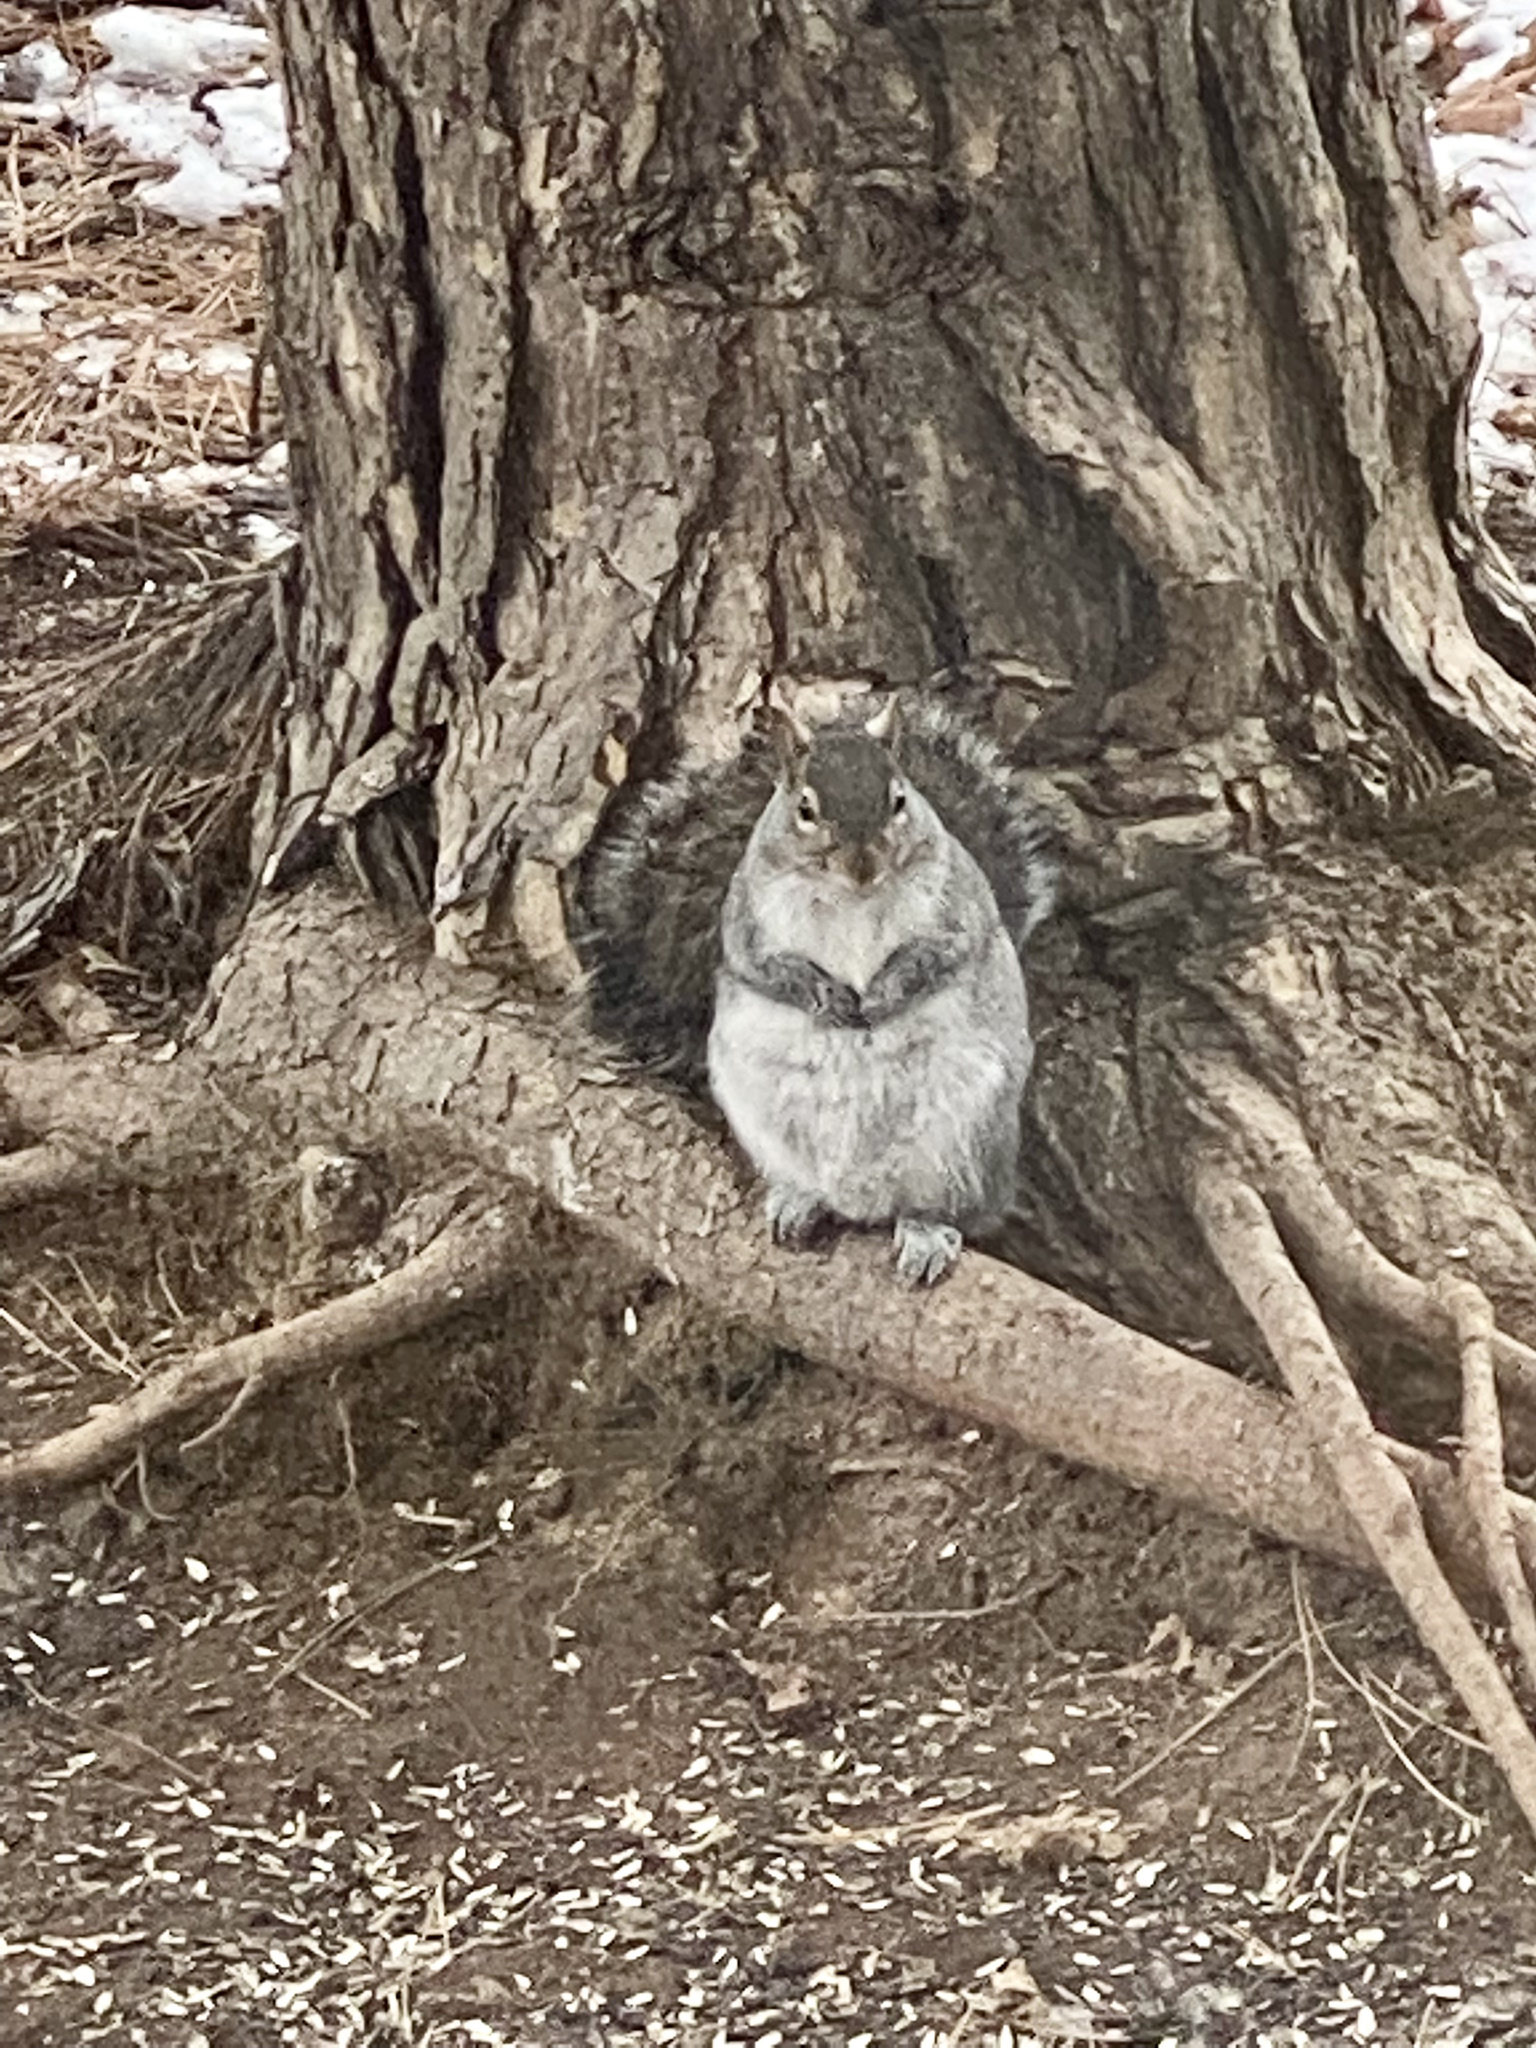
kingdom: Animalia
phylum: Chordata
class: Mammalia
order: Rodentia
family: Sciuridae
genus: Sciurus
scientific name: Sciurus carolinensis
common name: Eastern gray squirrel
